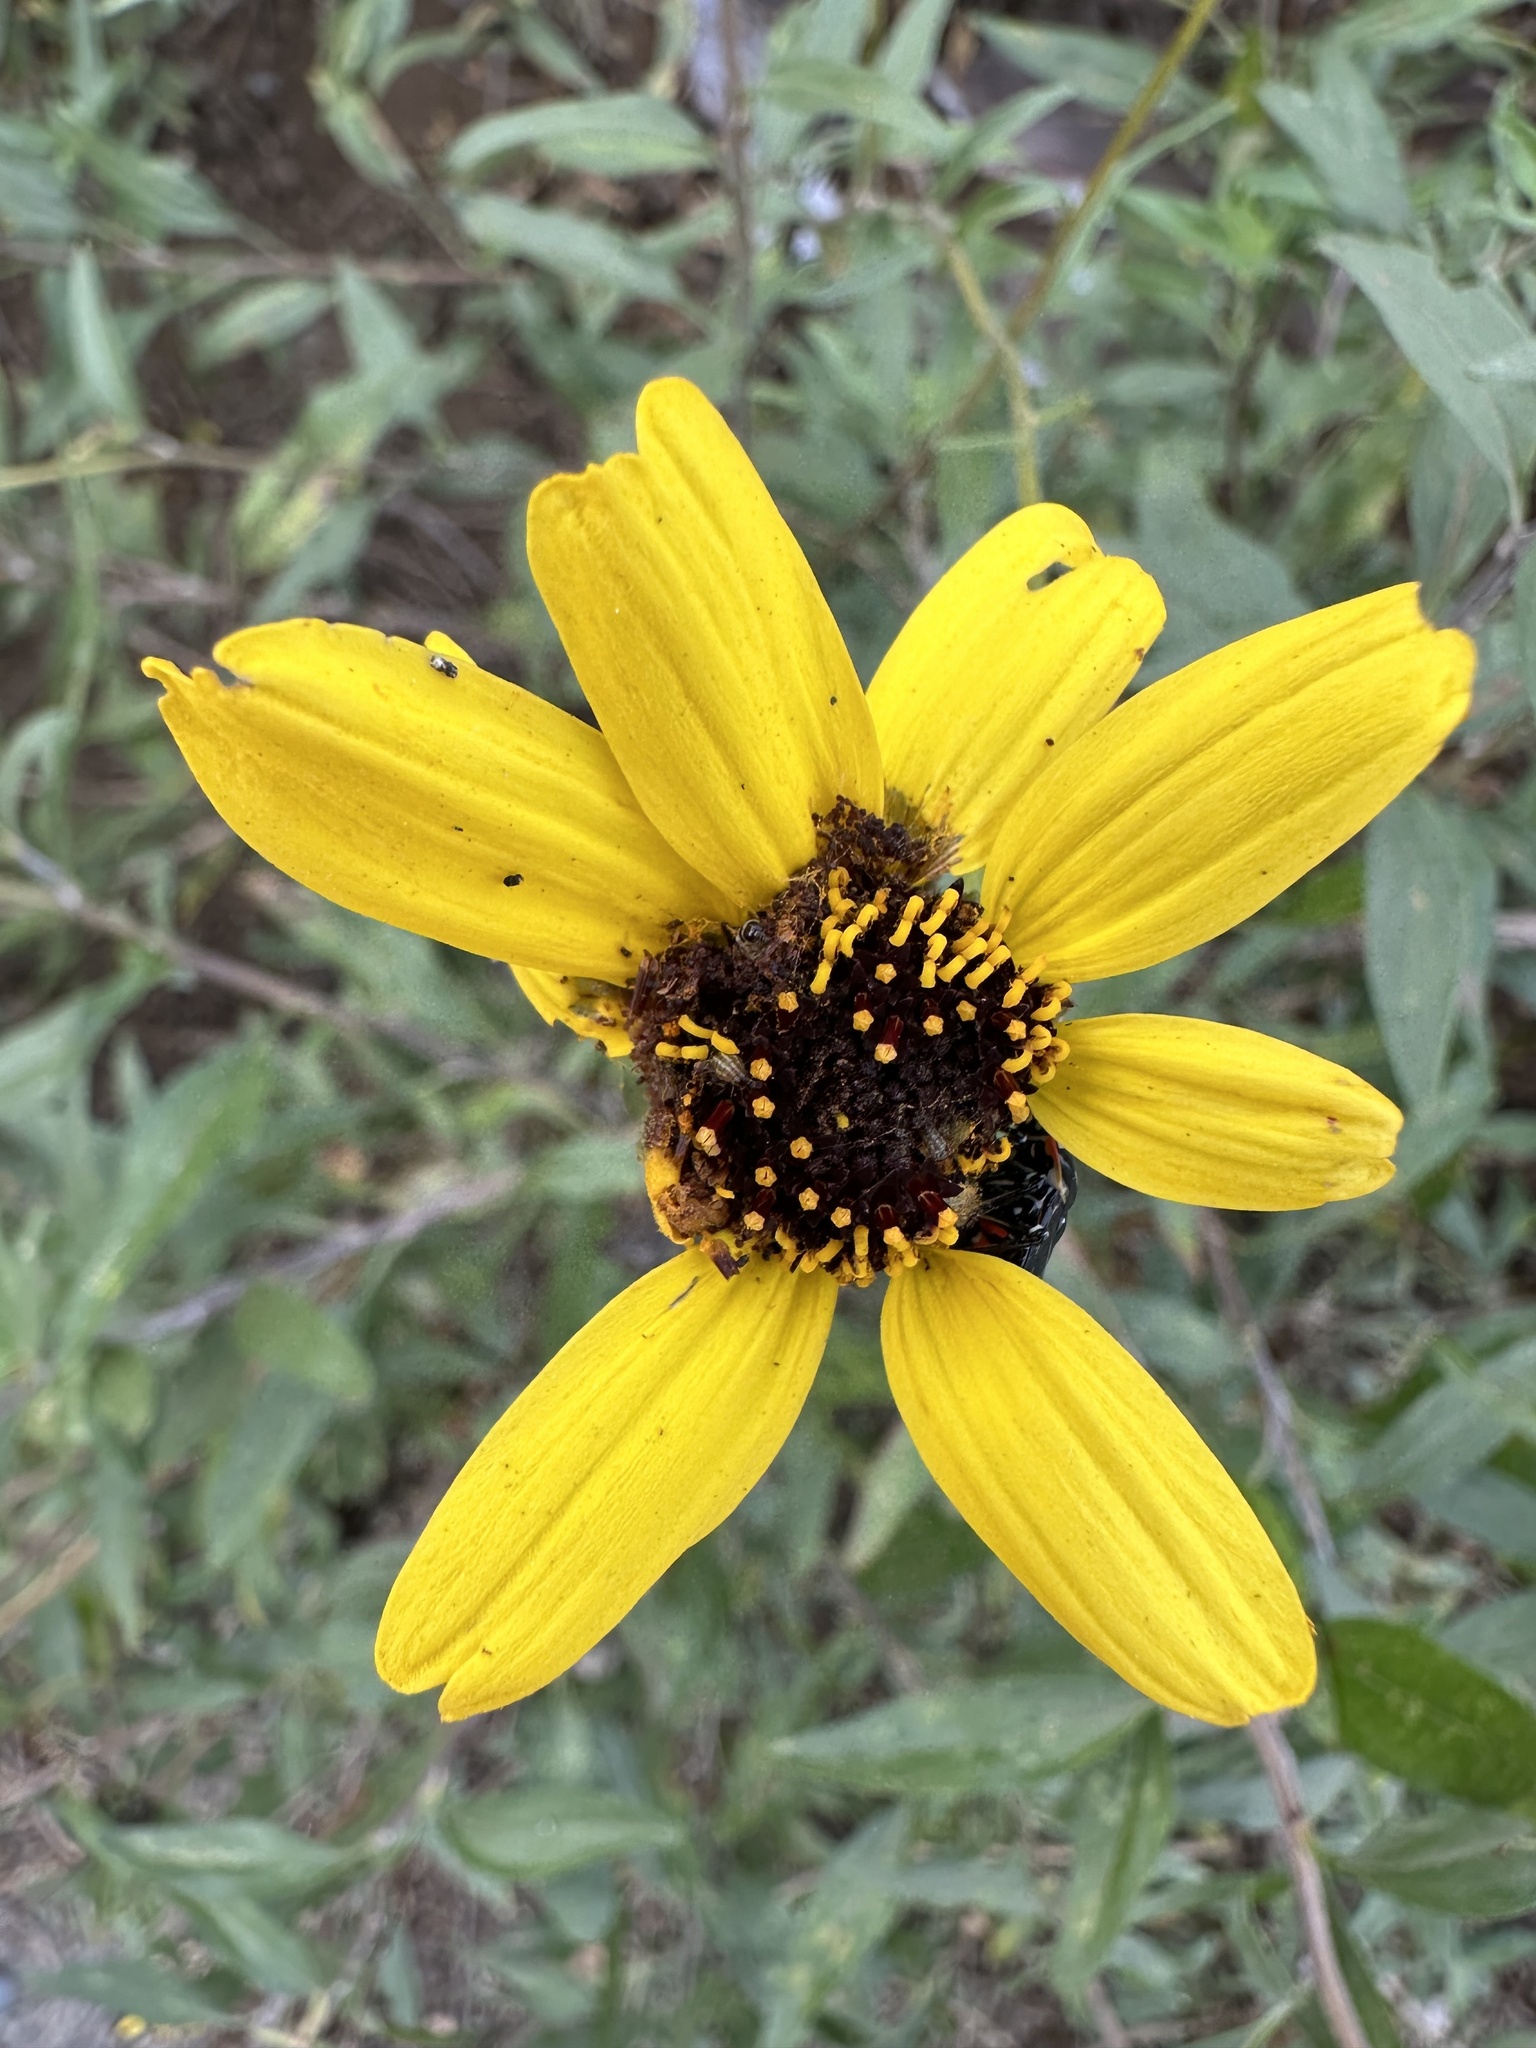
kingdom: Plantae
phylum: Tracheophyta
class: Magnoliopsida
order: Asterales
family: Asteraceae
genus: Encelia
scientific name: Encelia californica
